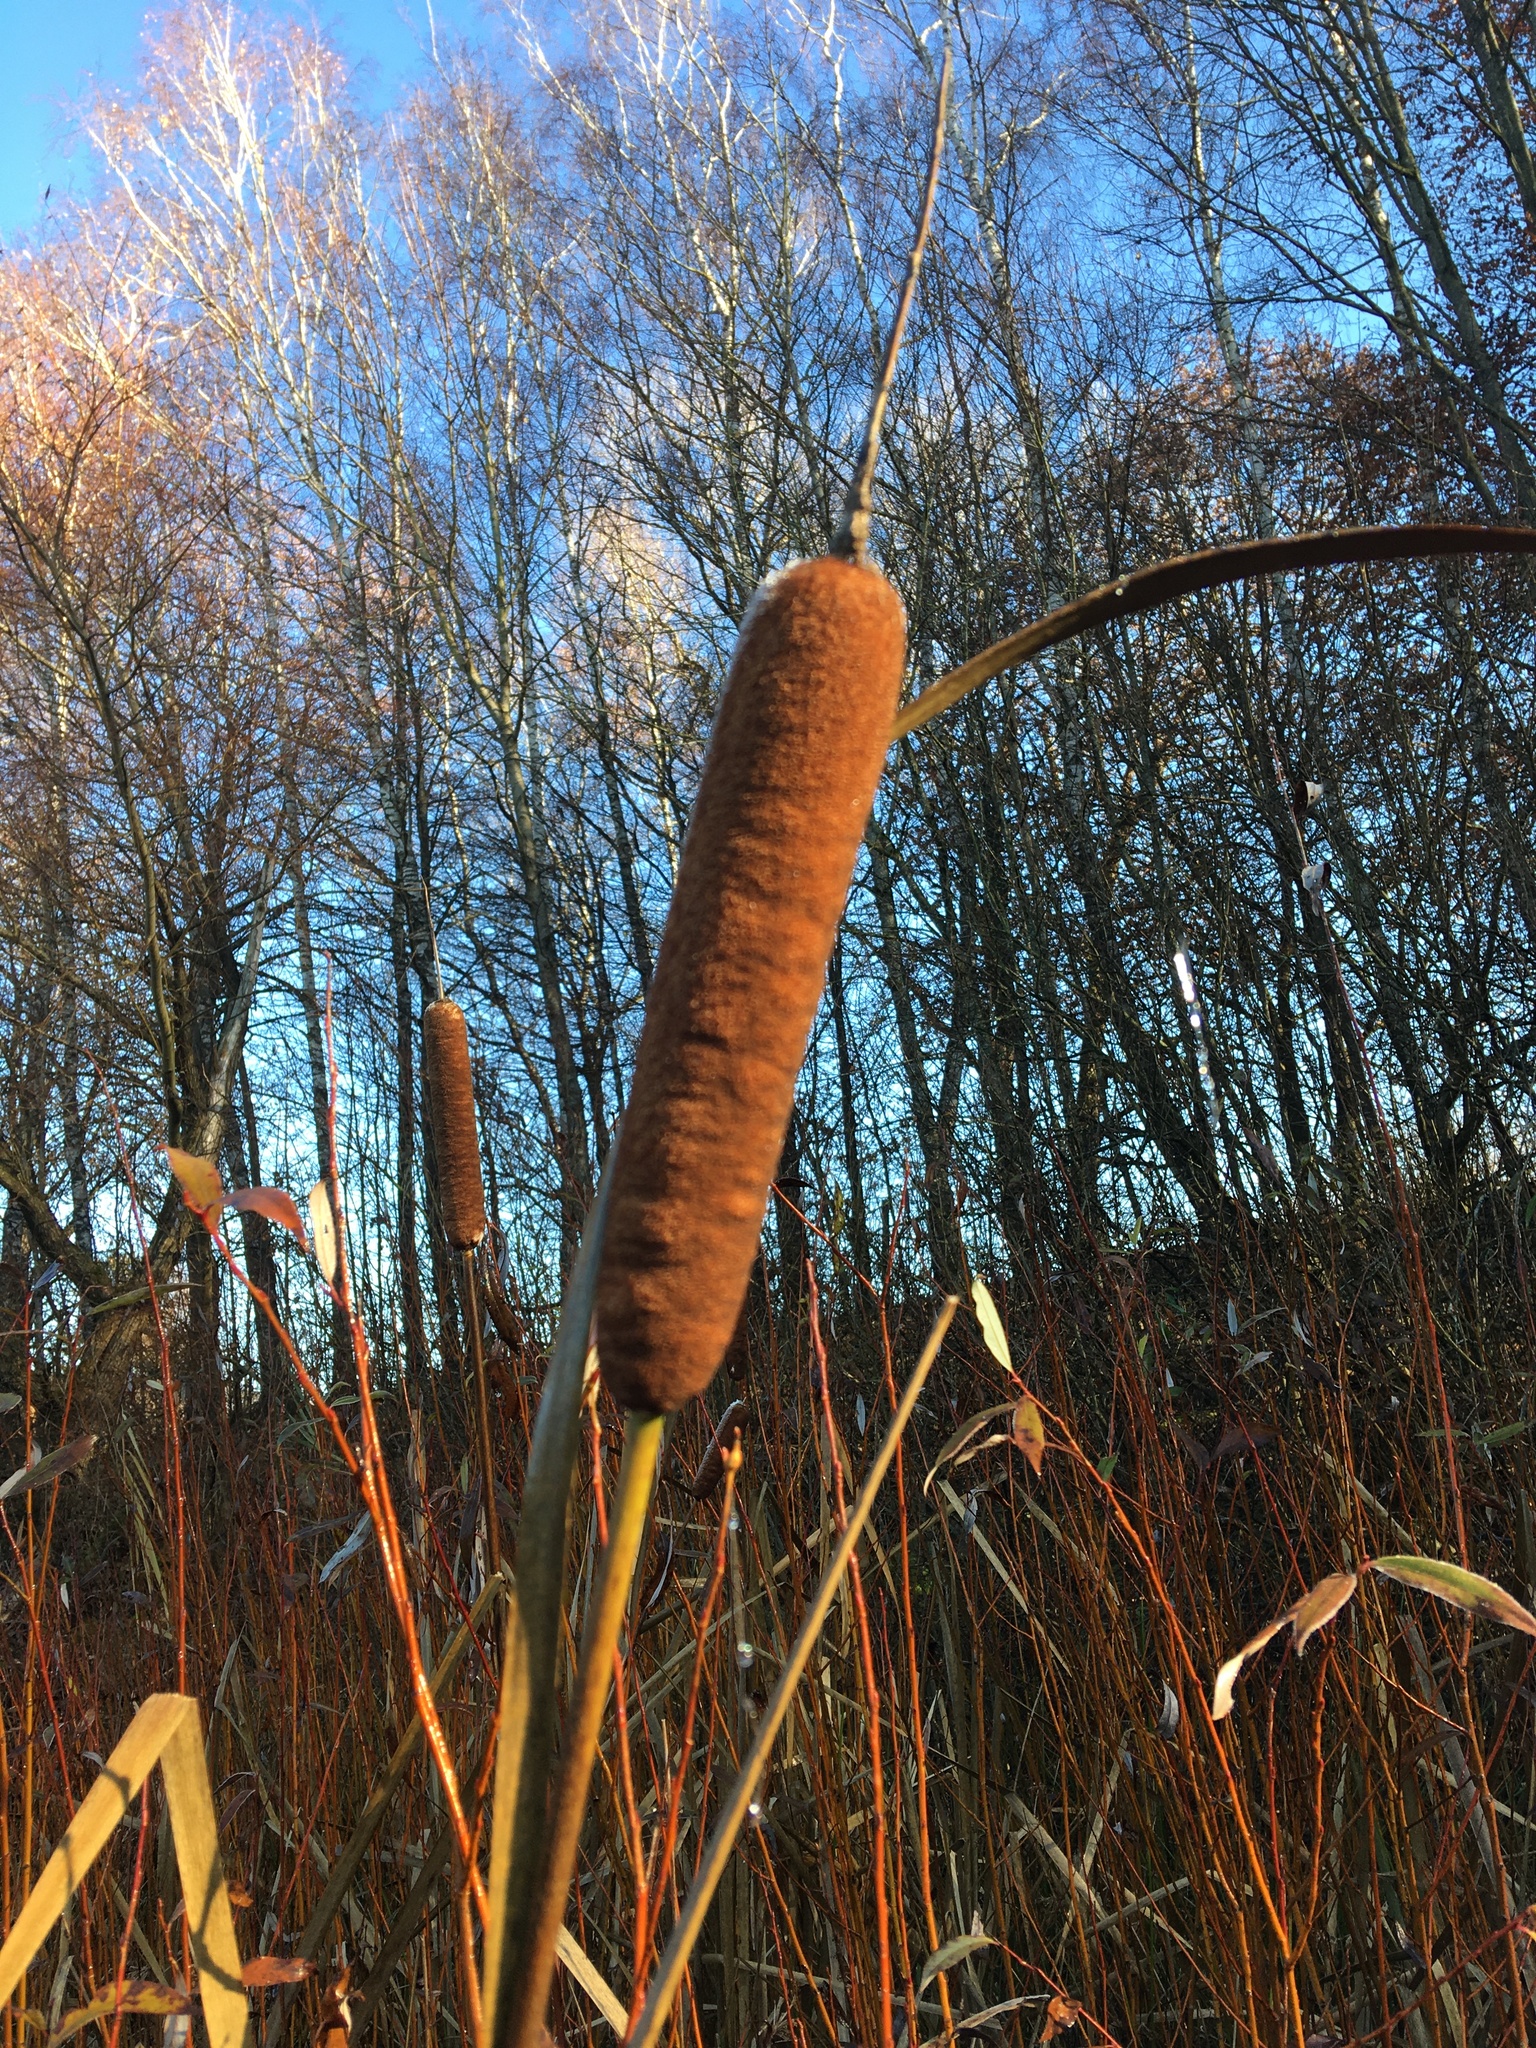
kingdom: Plantae
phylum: Tracheophyta
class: Liliopsida
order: Poales
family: Typhaceae
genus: Typha
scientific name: Typha latifolia
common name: Broadleaf cattail
